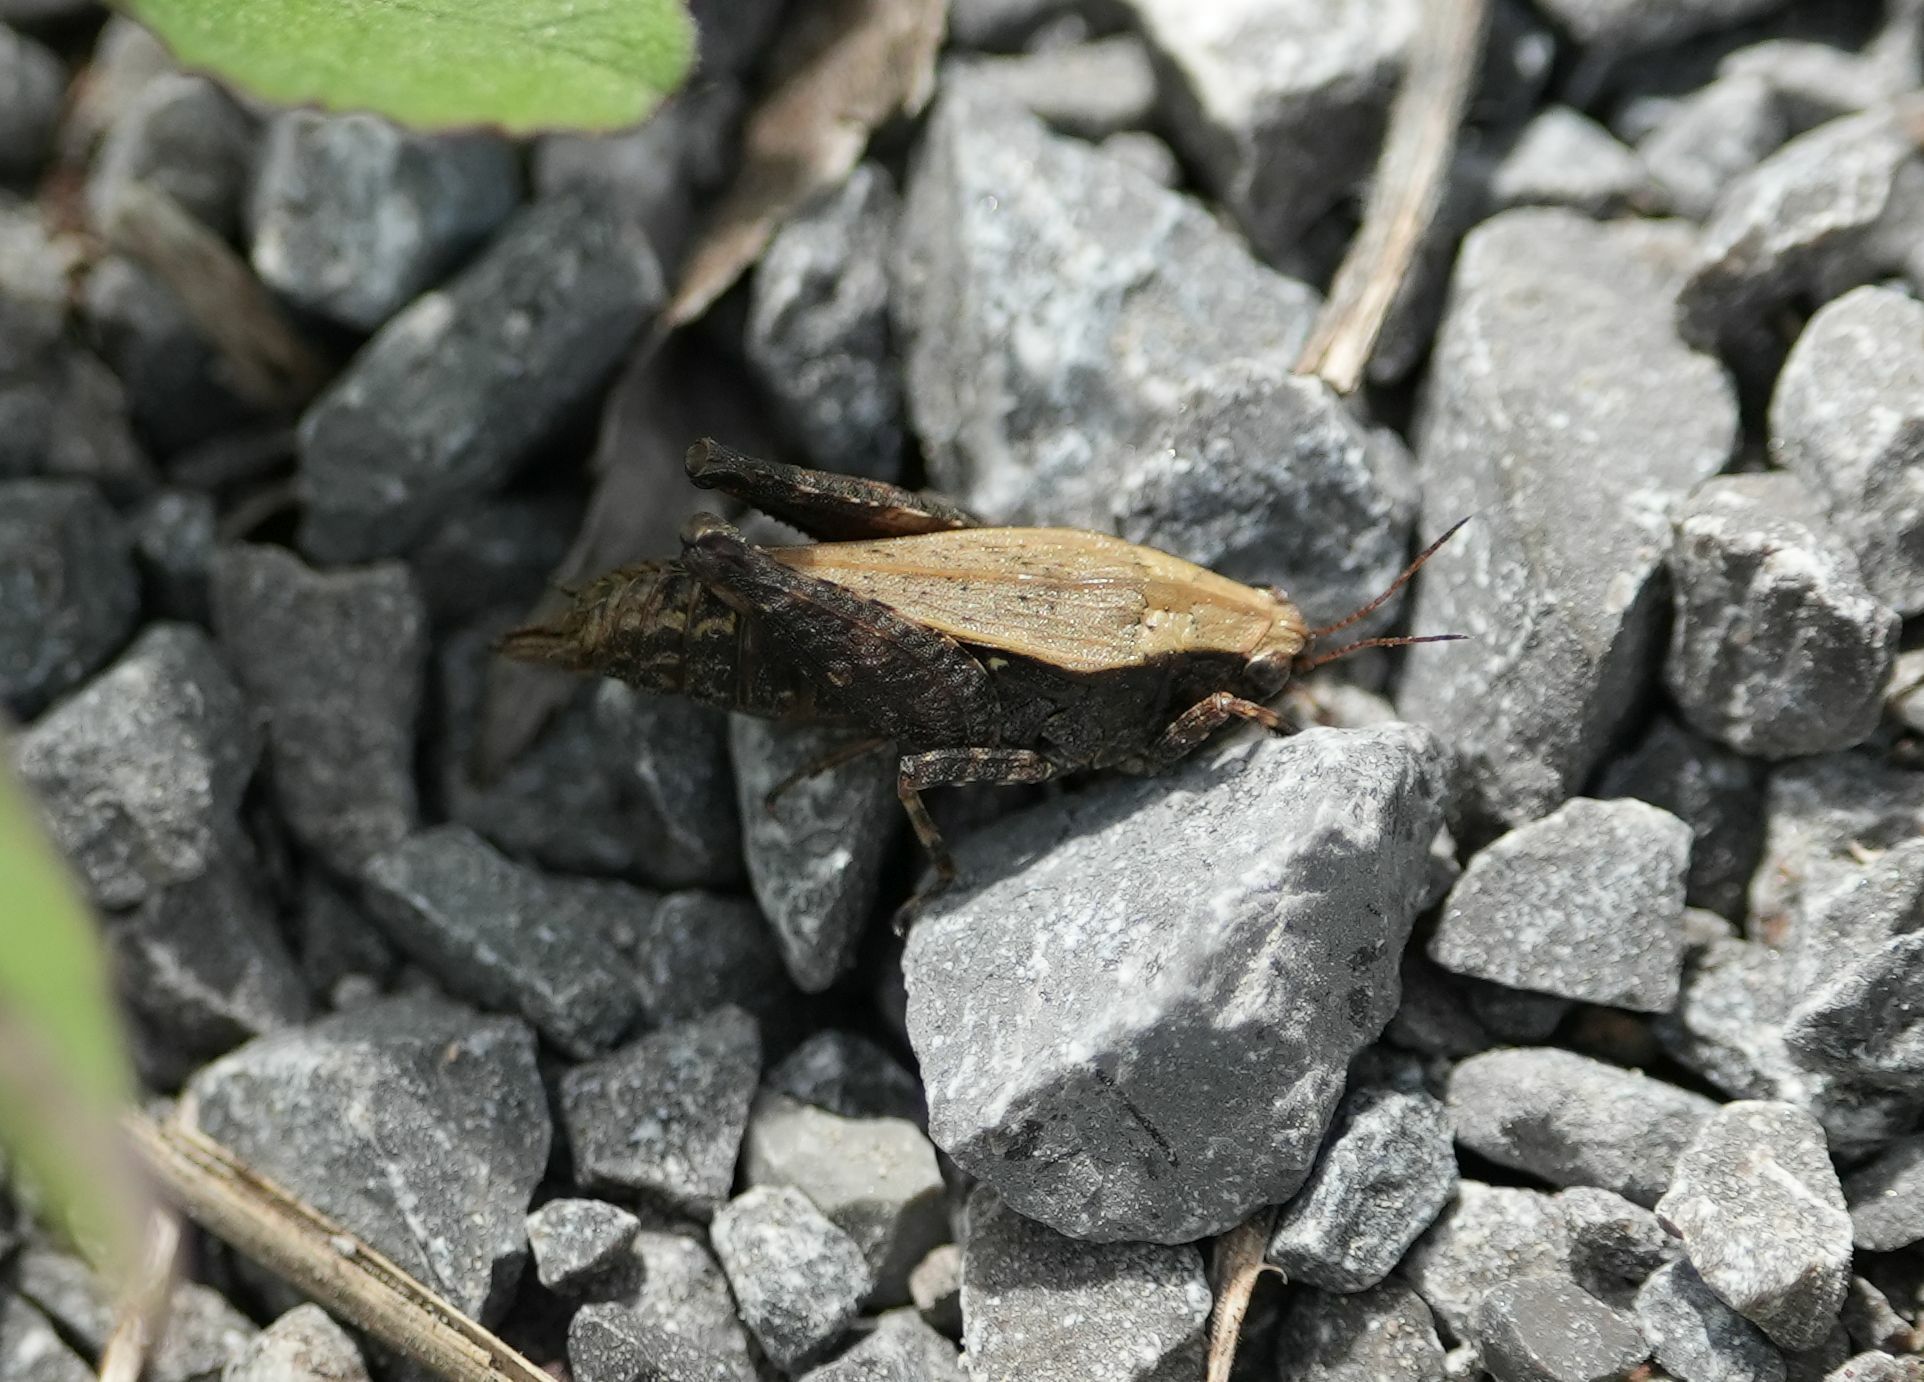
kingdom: Animalia
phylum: Arthropoda
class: Insecta
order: Orthoptera
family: Tetrigidae
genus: Tettigidea
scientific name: Tettigidea laterale
